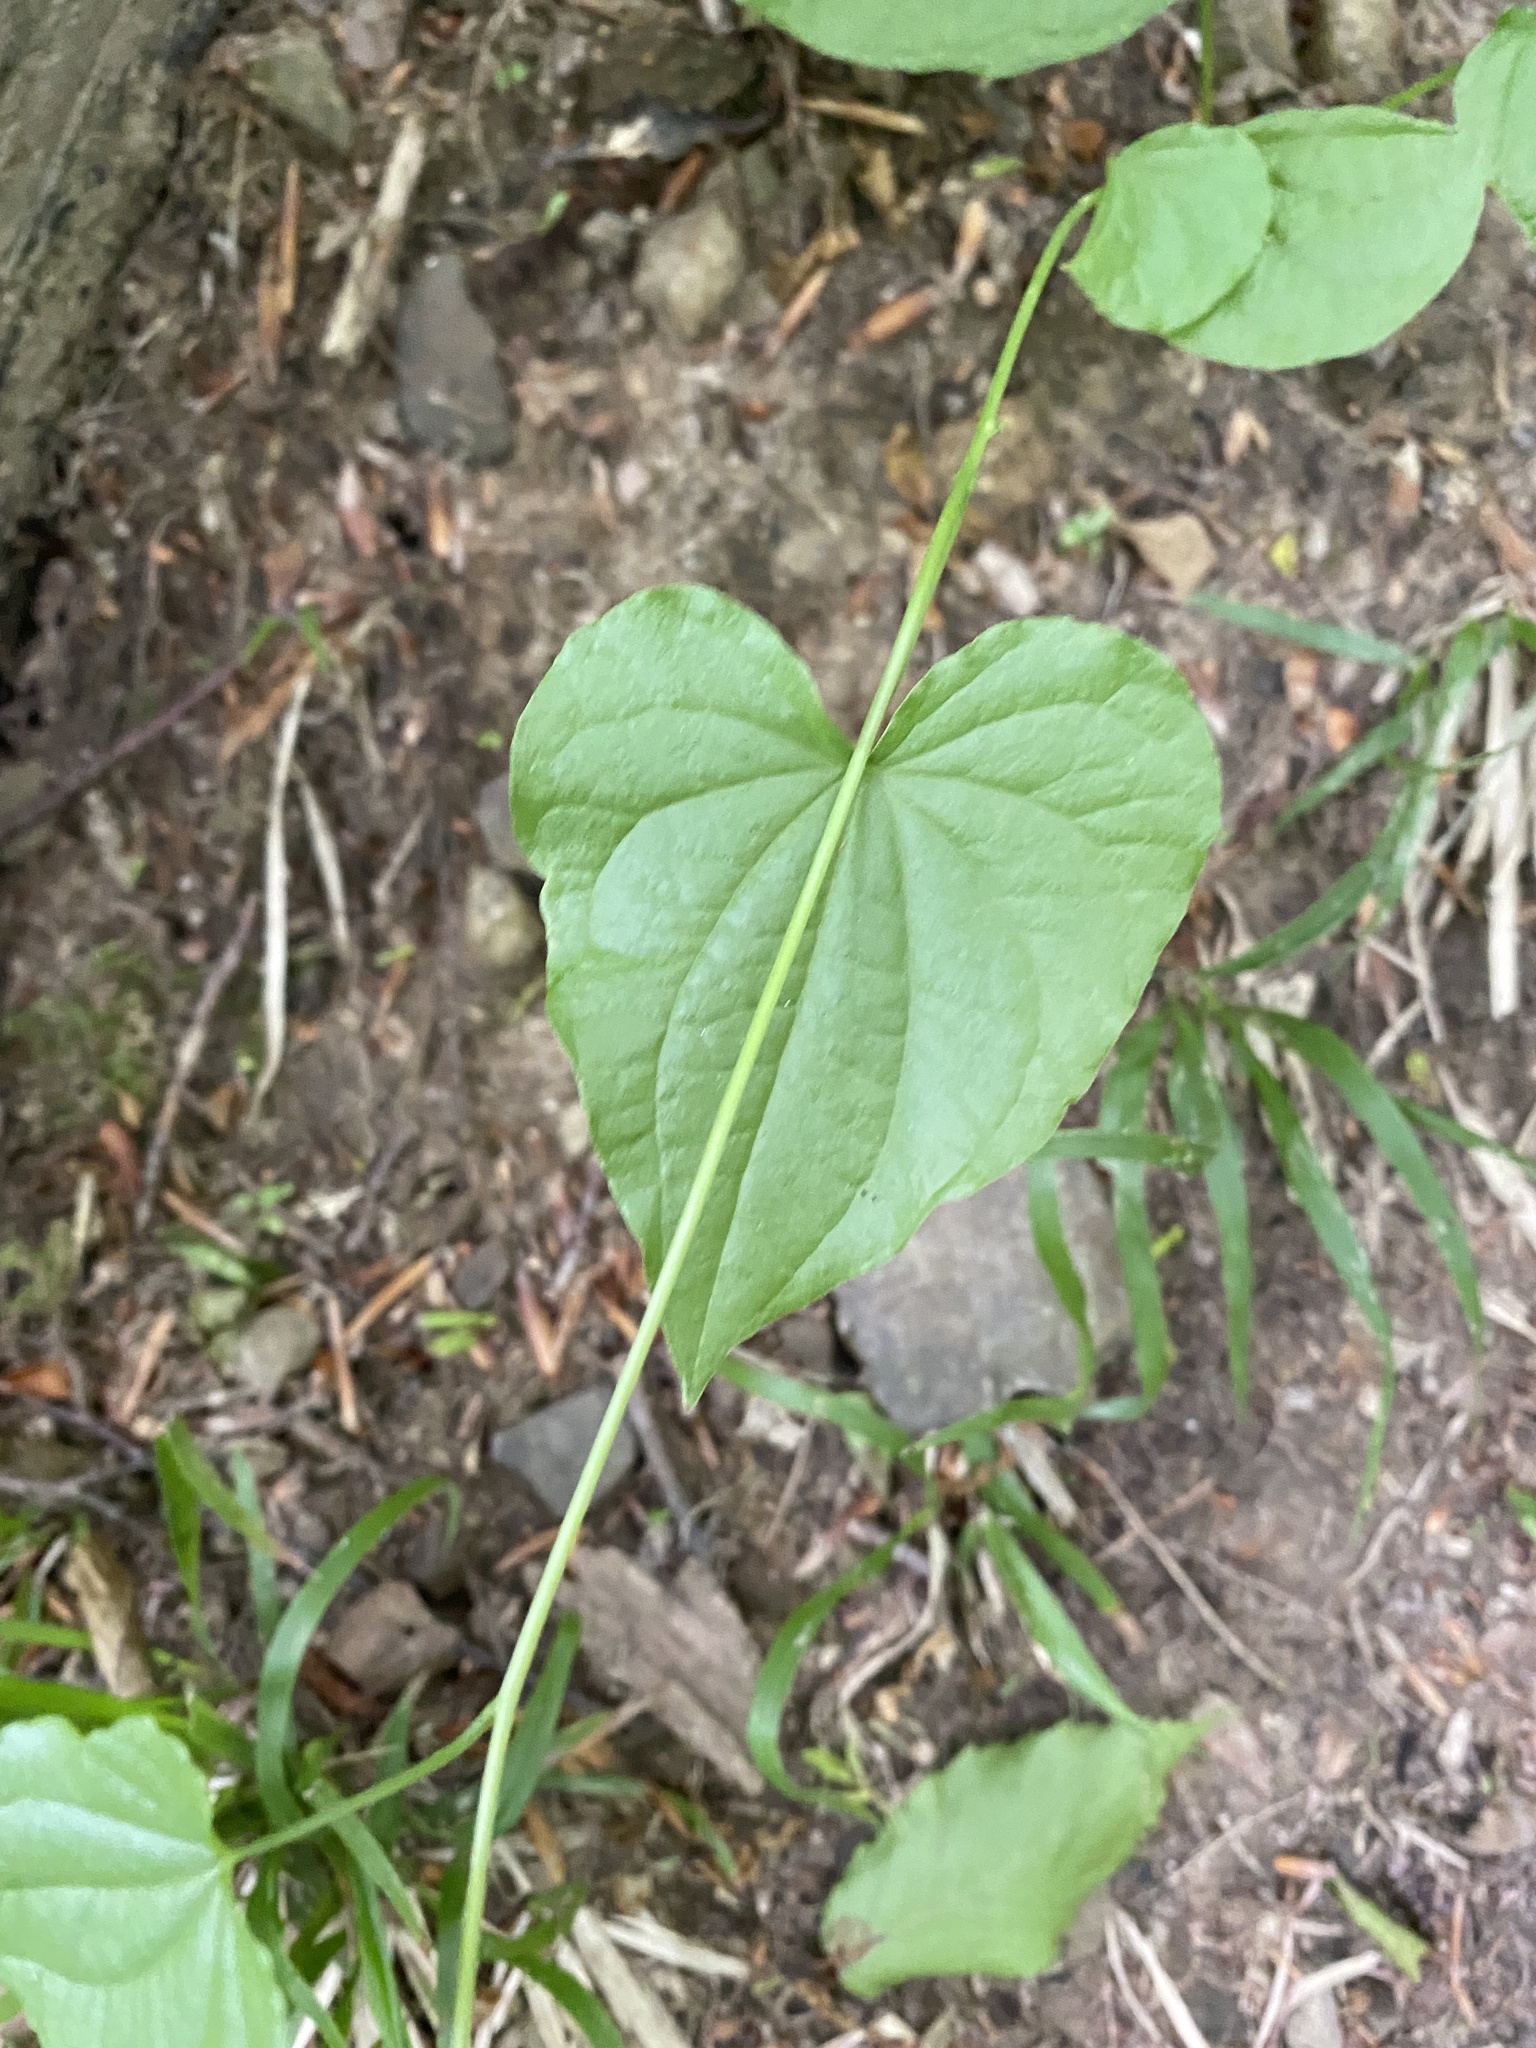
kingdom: Plantae
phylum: Tracheophyta
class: Liliopsida
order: Dioscoreales
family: Dioscoreaceae
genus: Dioscorea
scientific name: Dioscorea communis
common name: Black-bindweed
